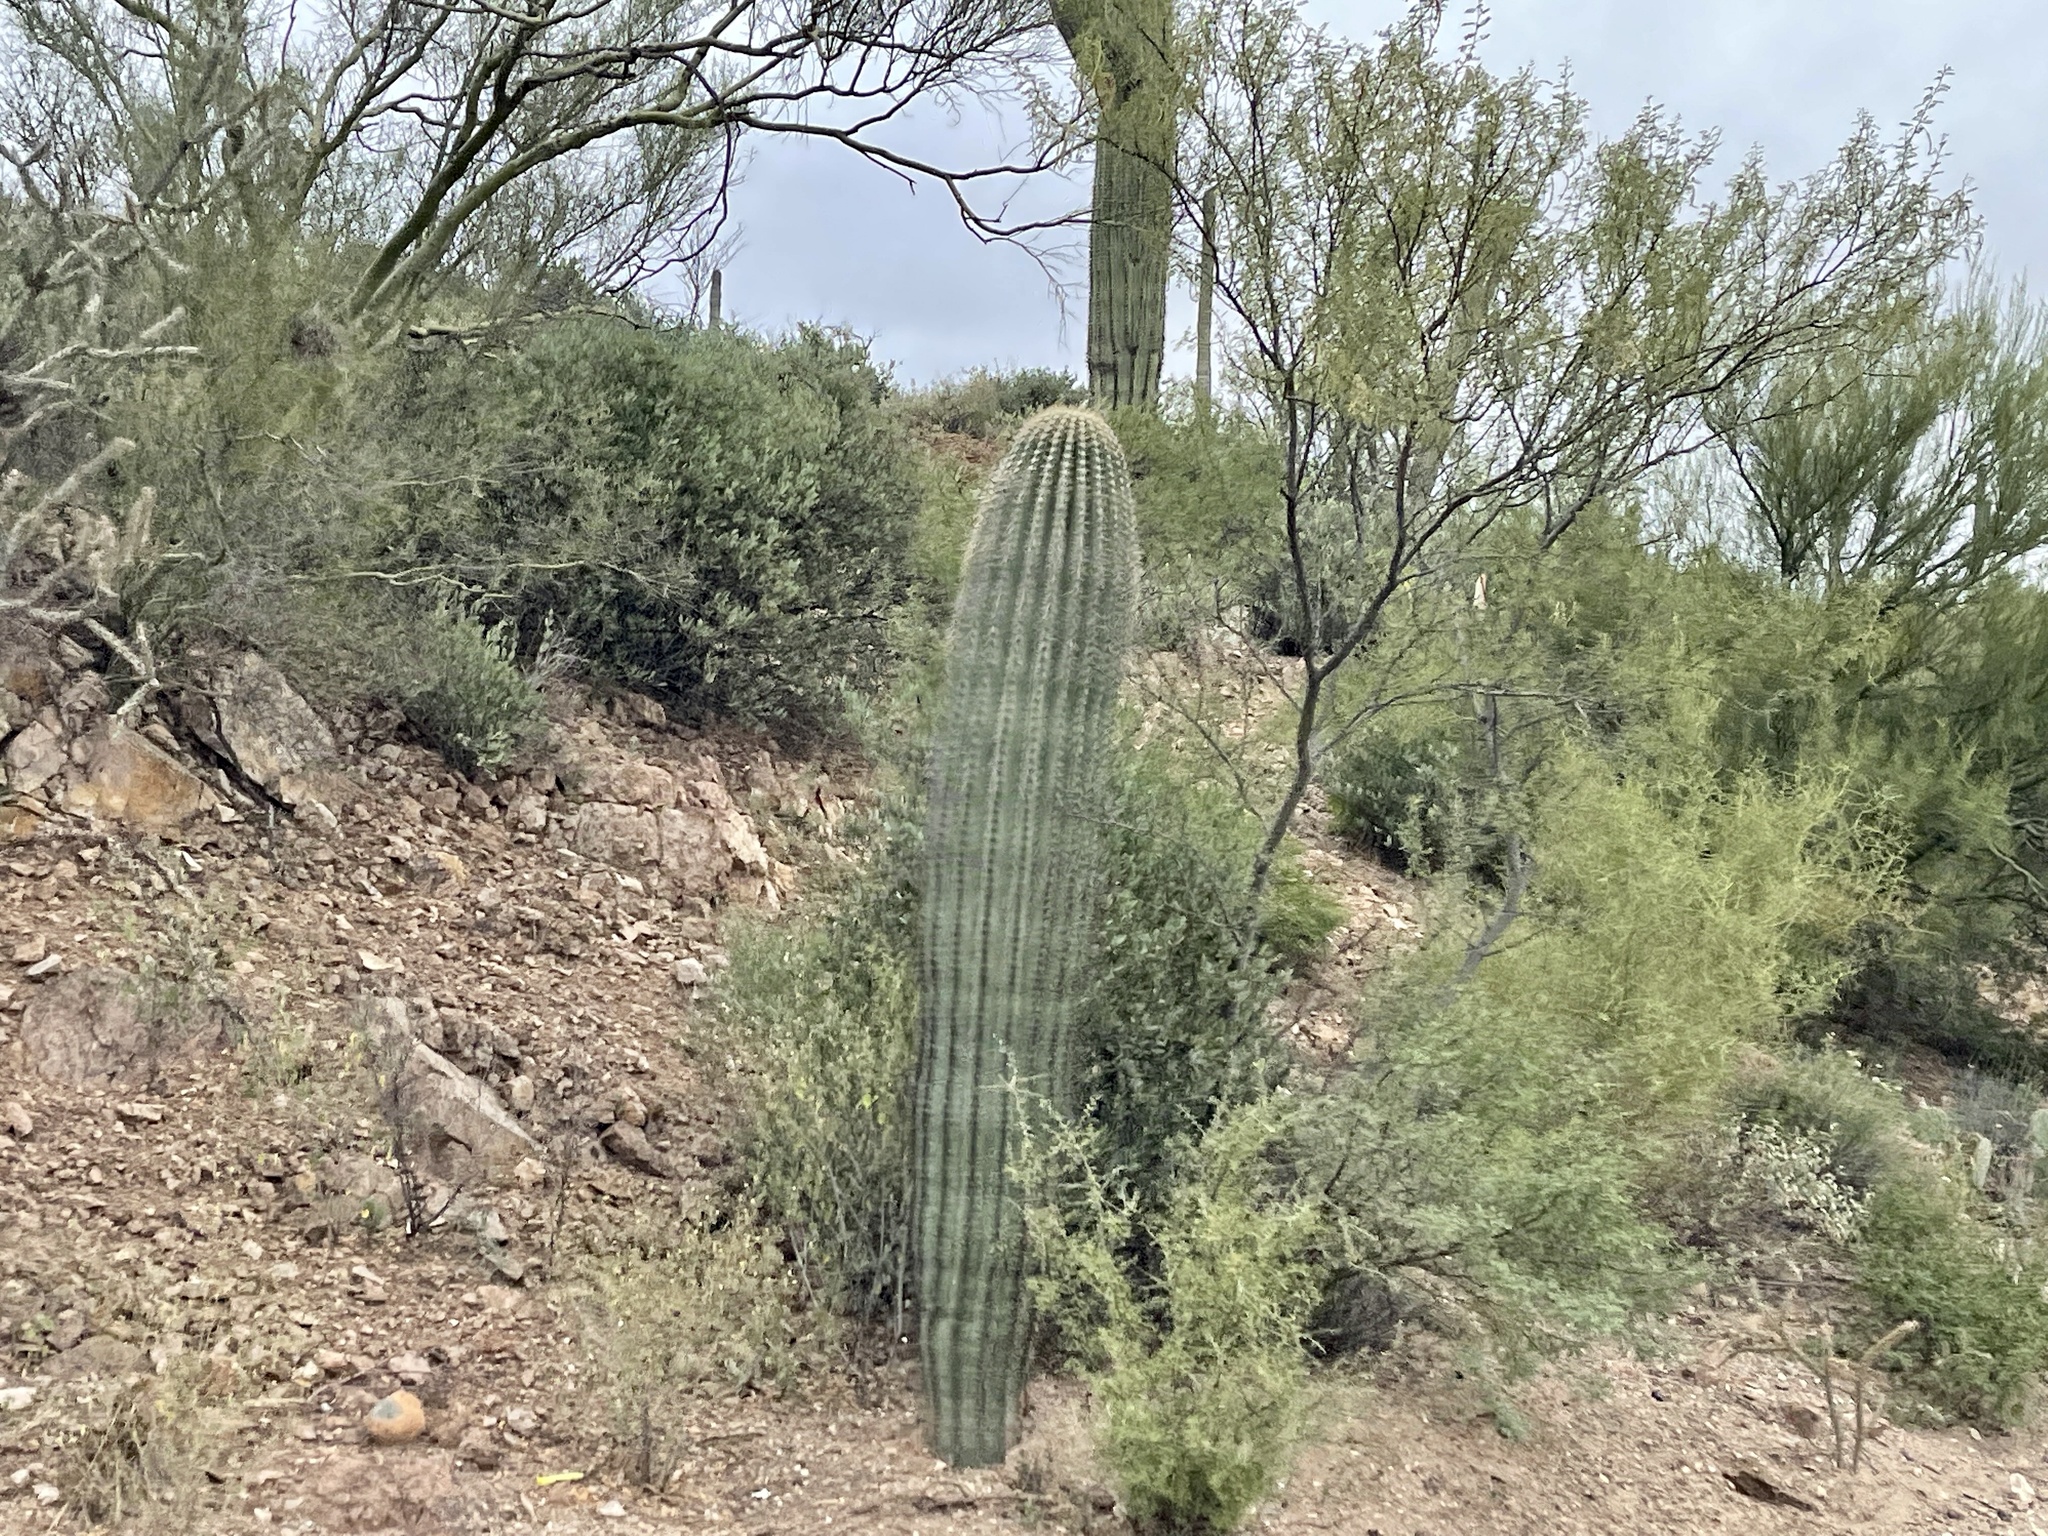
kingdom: Plantae
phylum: Tracheophyta
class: Magnoliopsida
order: Caryophyllales
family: Cactaceae
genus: Carnegiea
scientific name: Carnegiea gigantea
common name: Saguaro
